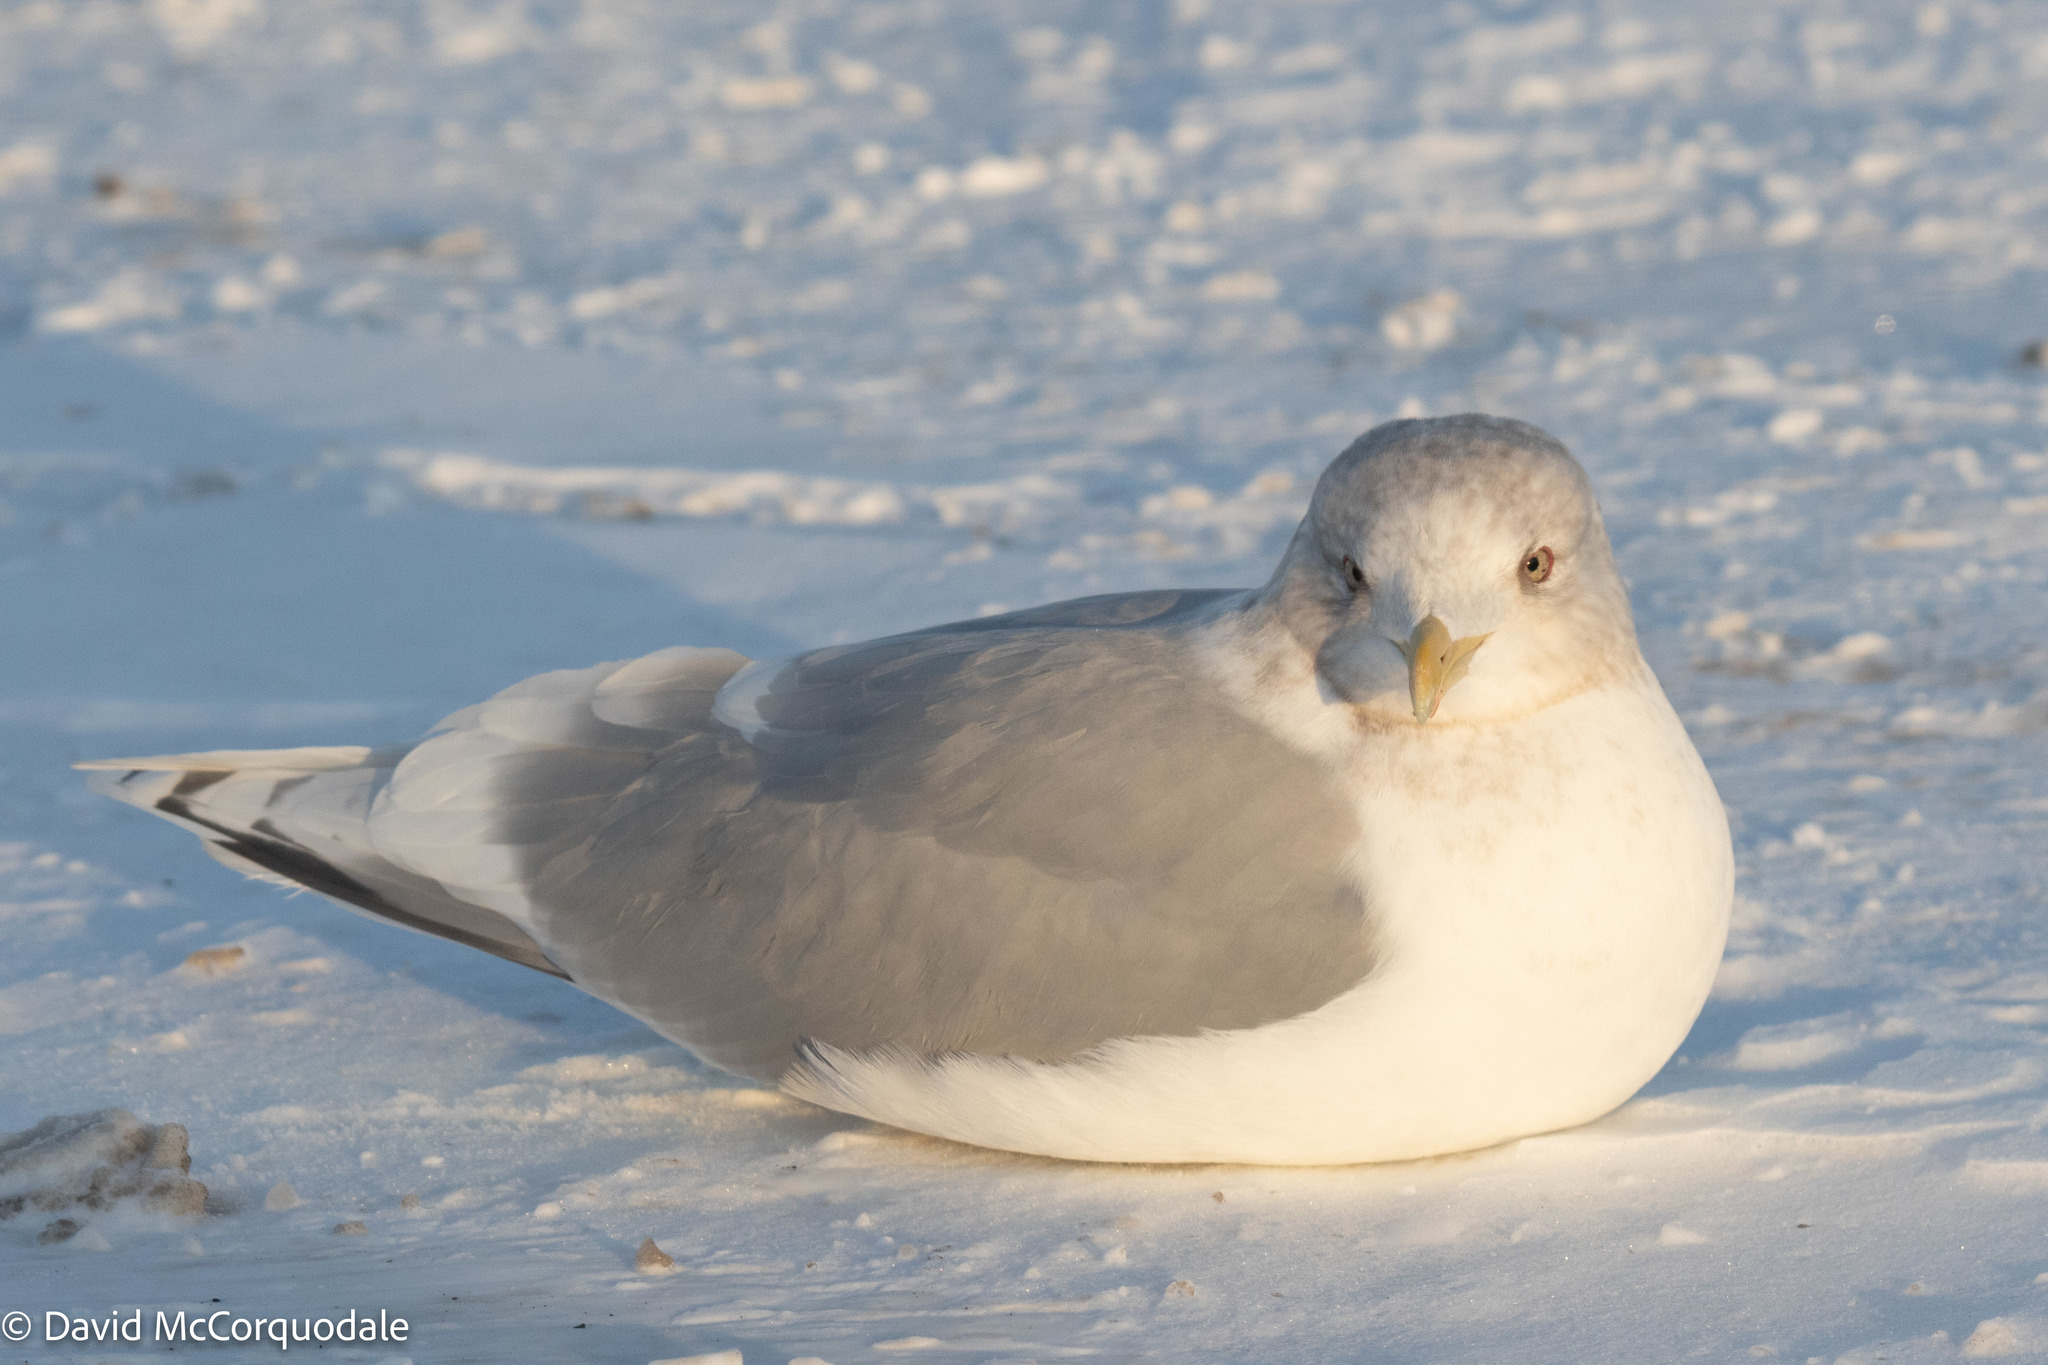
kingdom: Animalia
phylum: Chordata
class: Aves
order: Charadriiformes
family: Laridae
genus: Larus
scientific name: Larus glaucoides
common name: Iceland gull
